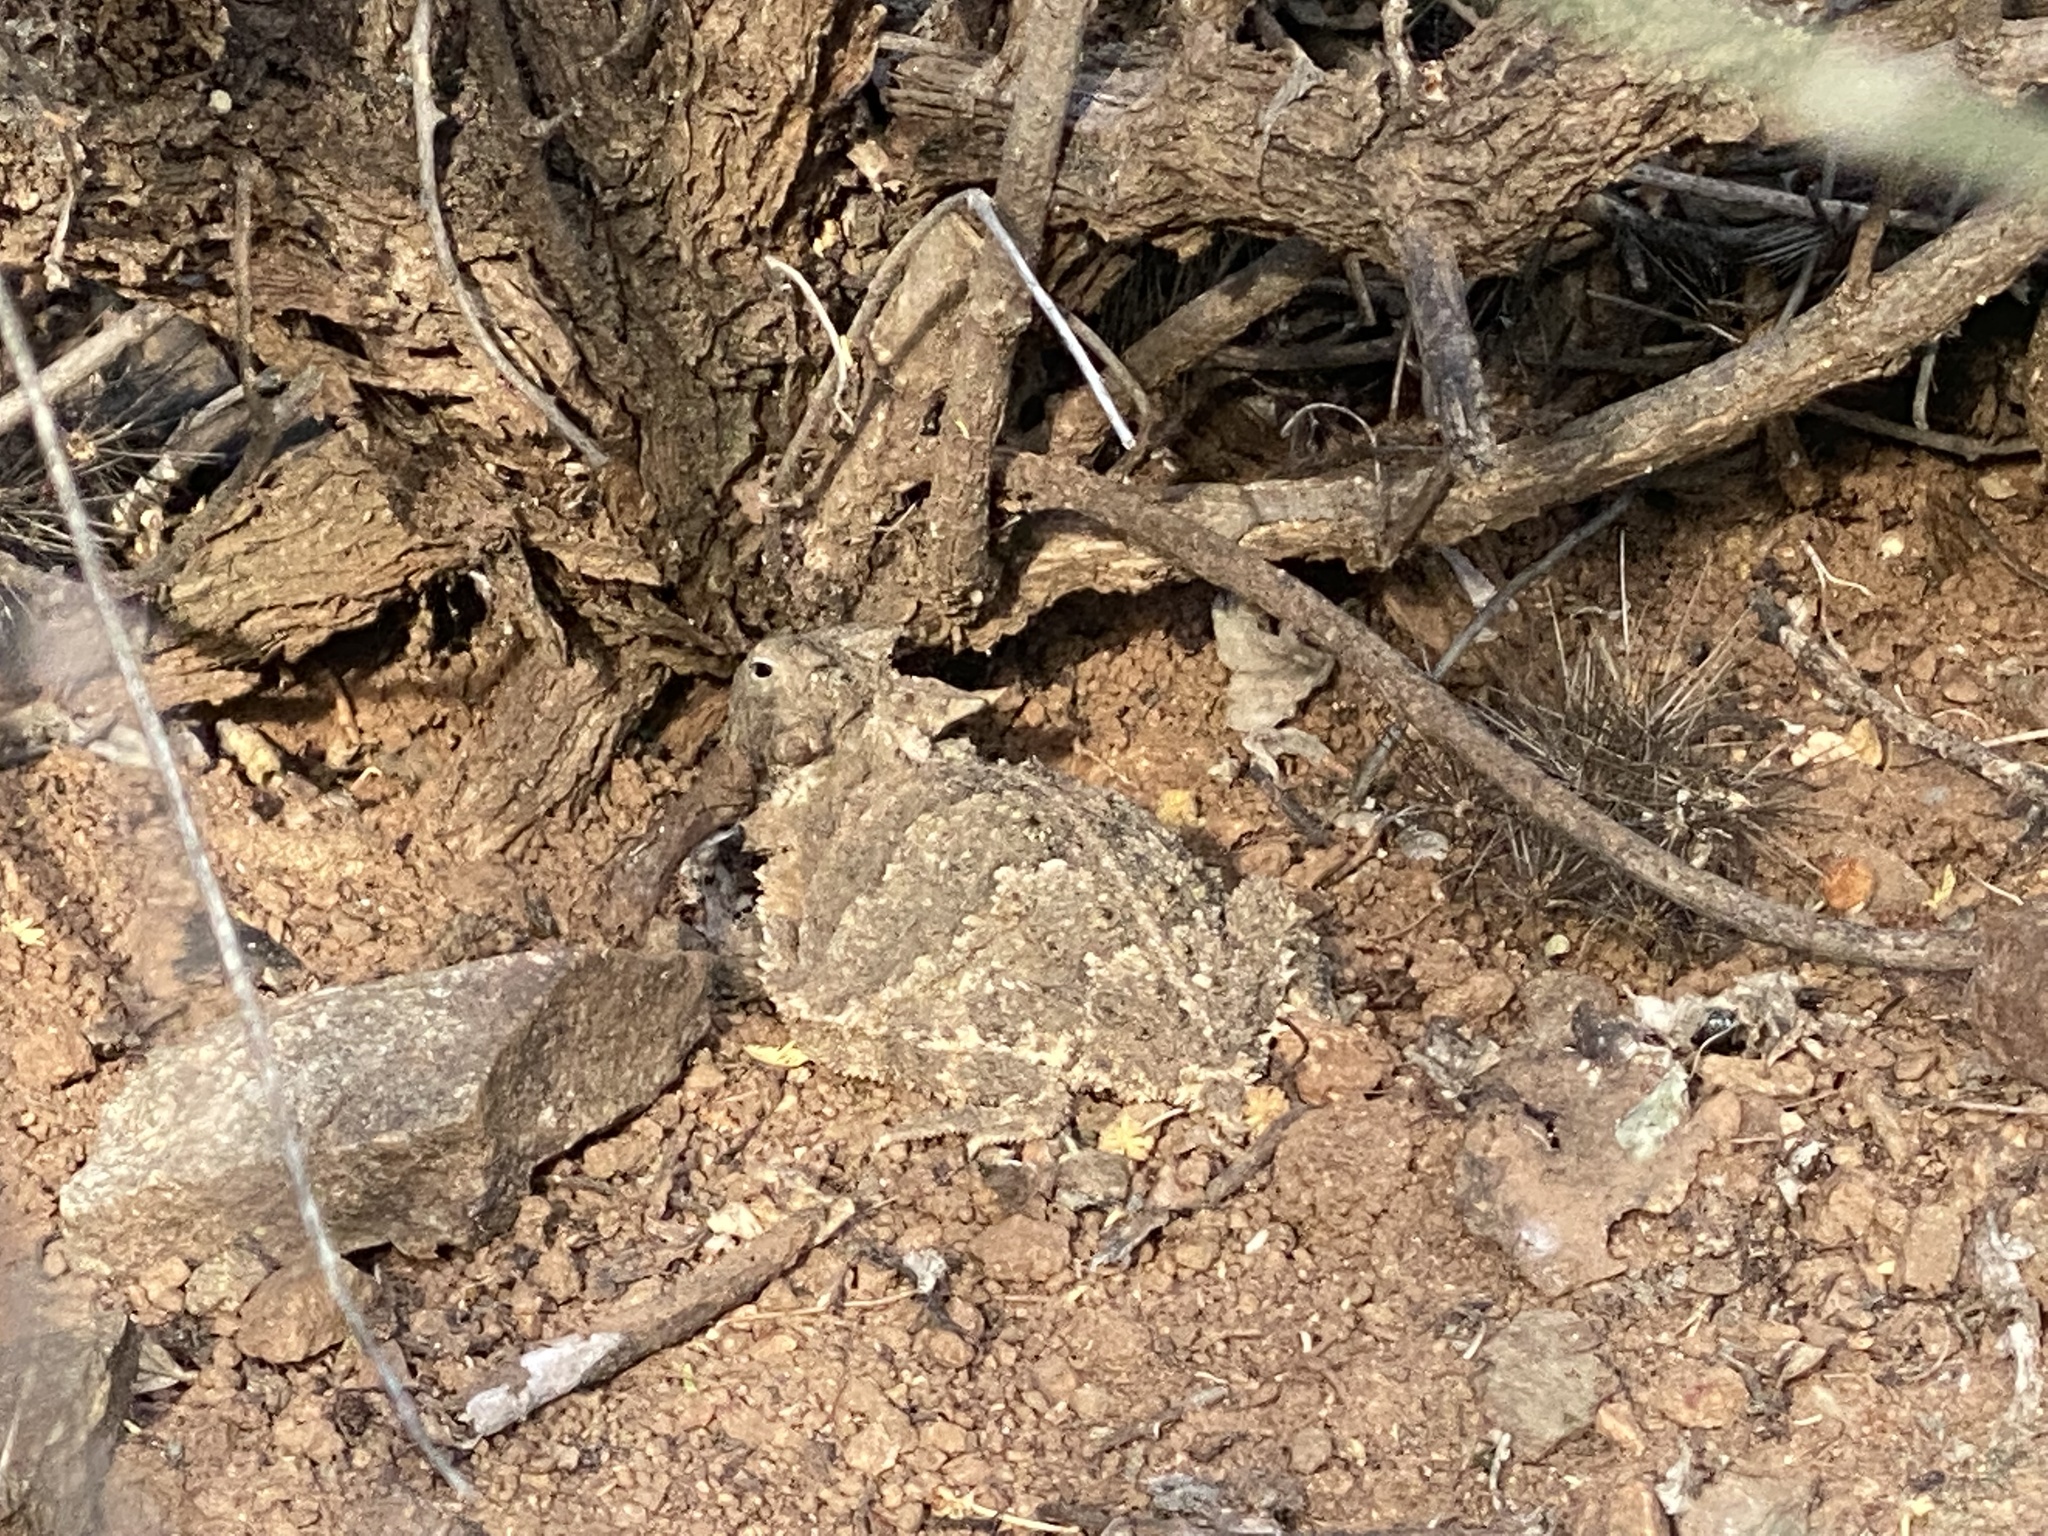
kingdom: Animalia
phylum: Chordata
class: Squamata
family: Phrynosomatidae
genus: Phrynosoma
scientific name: Phrynosoma taurus
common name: Mexican horned lizard
